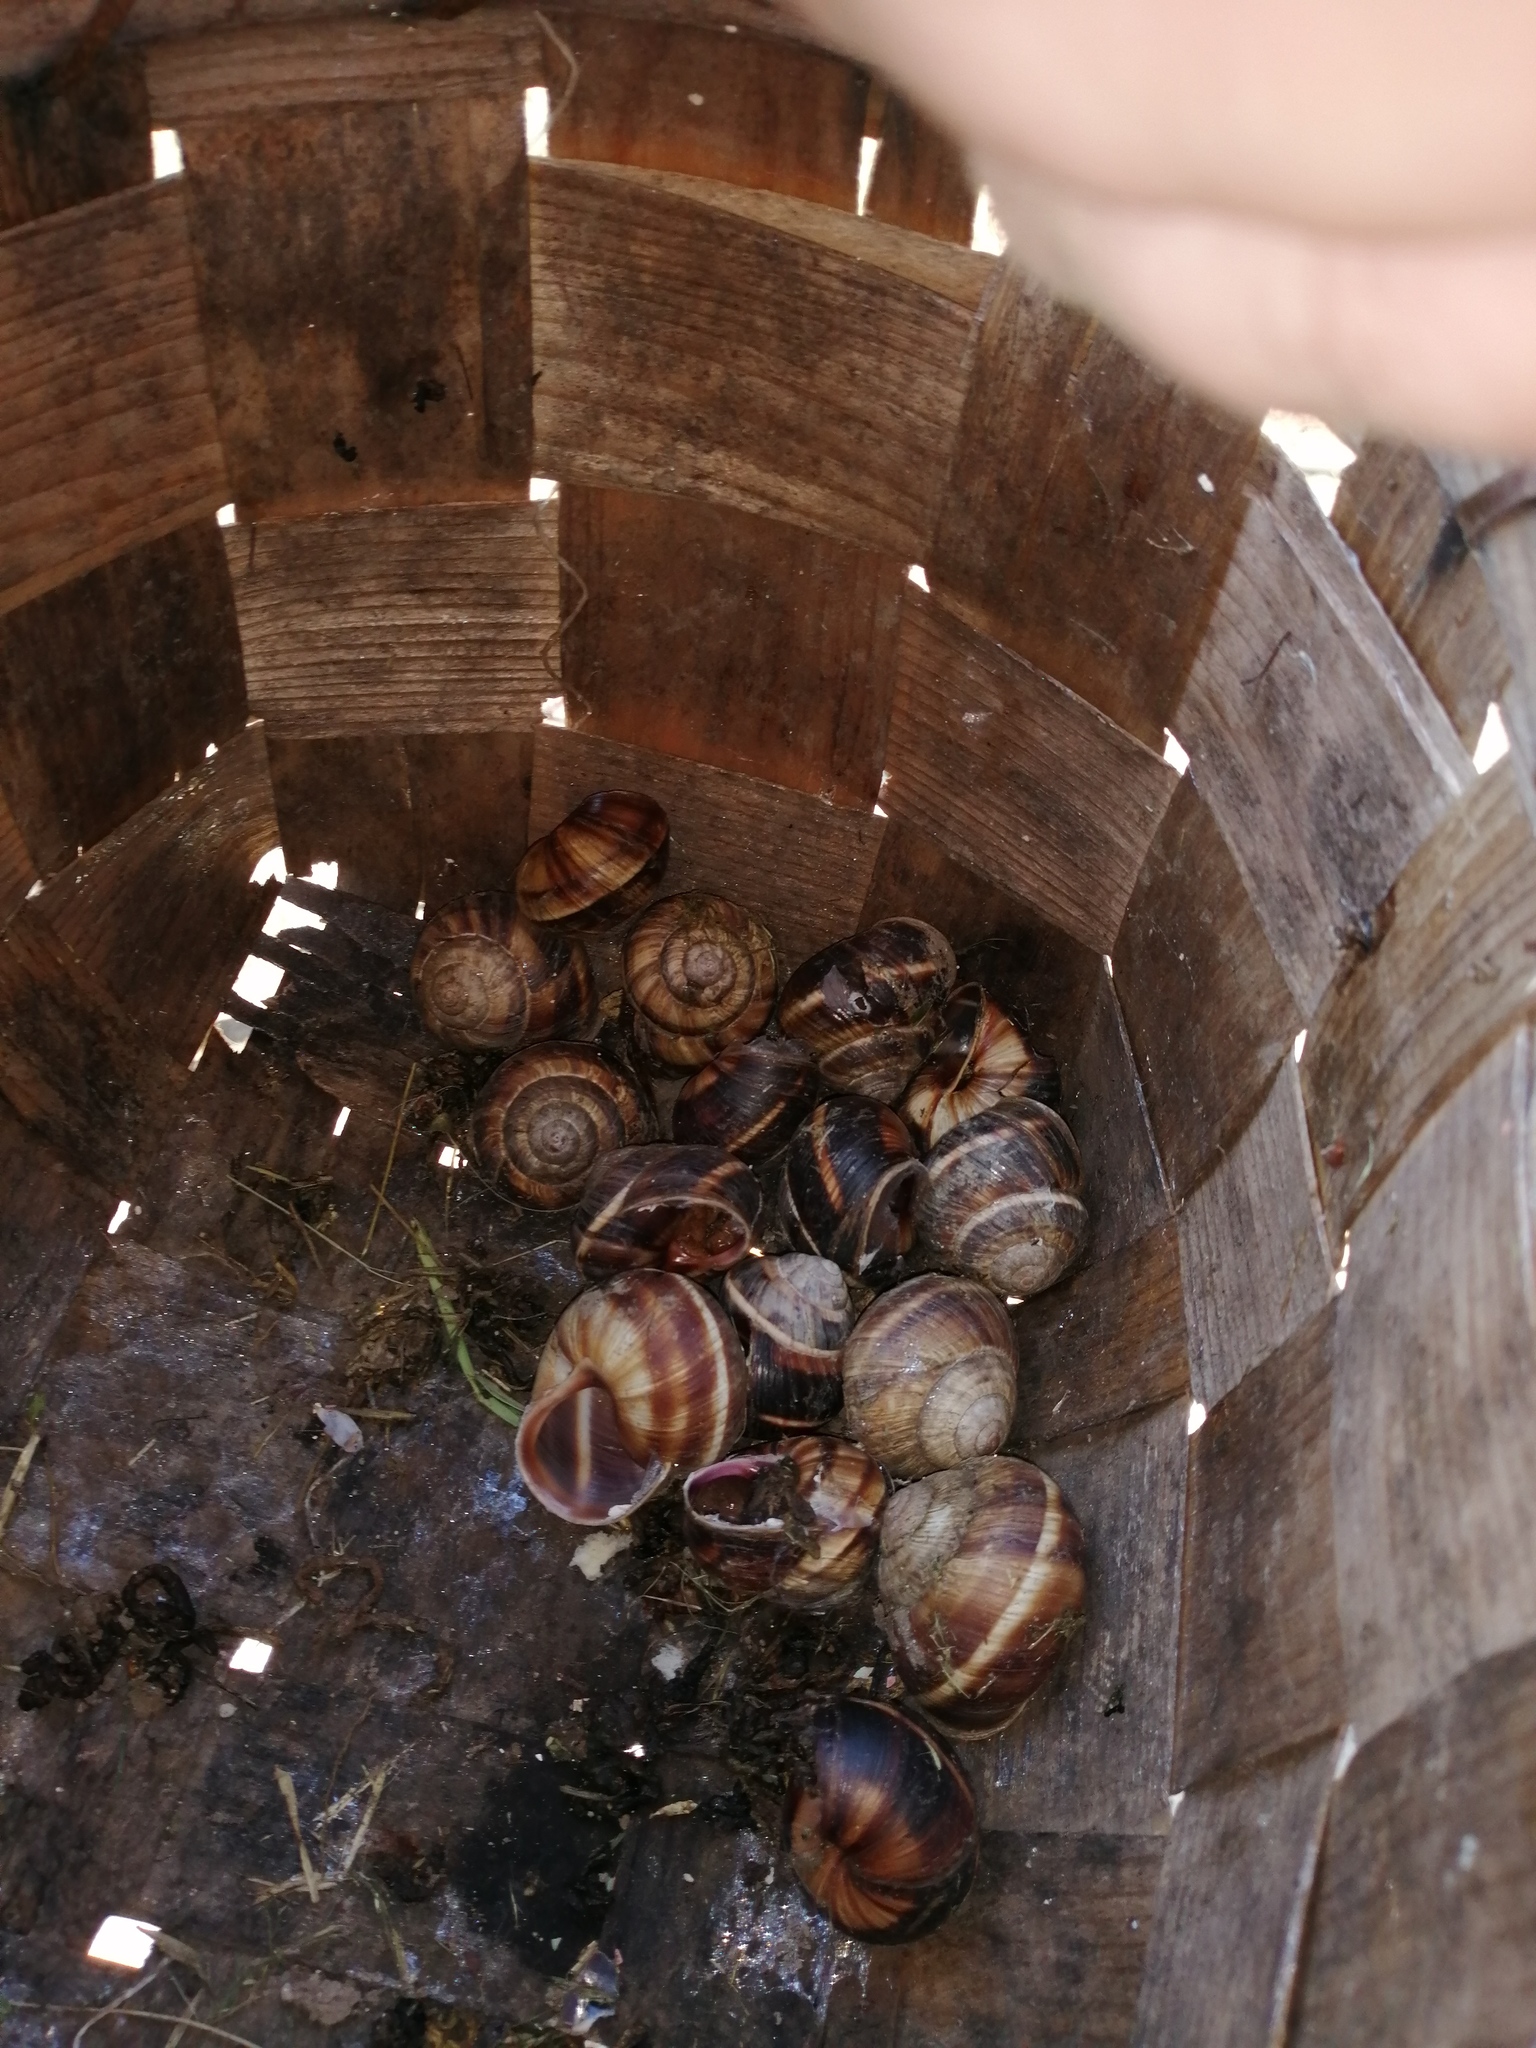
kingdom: Animalia
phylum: Mollusca
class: Gastropoda
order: Stylommatophora
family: Helicidae
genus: Helix
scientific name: Helix lucorum
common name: Turkish snail
